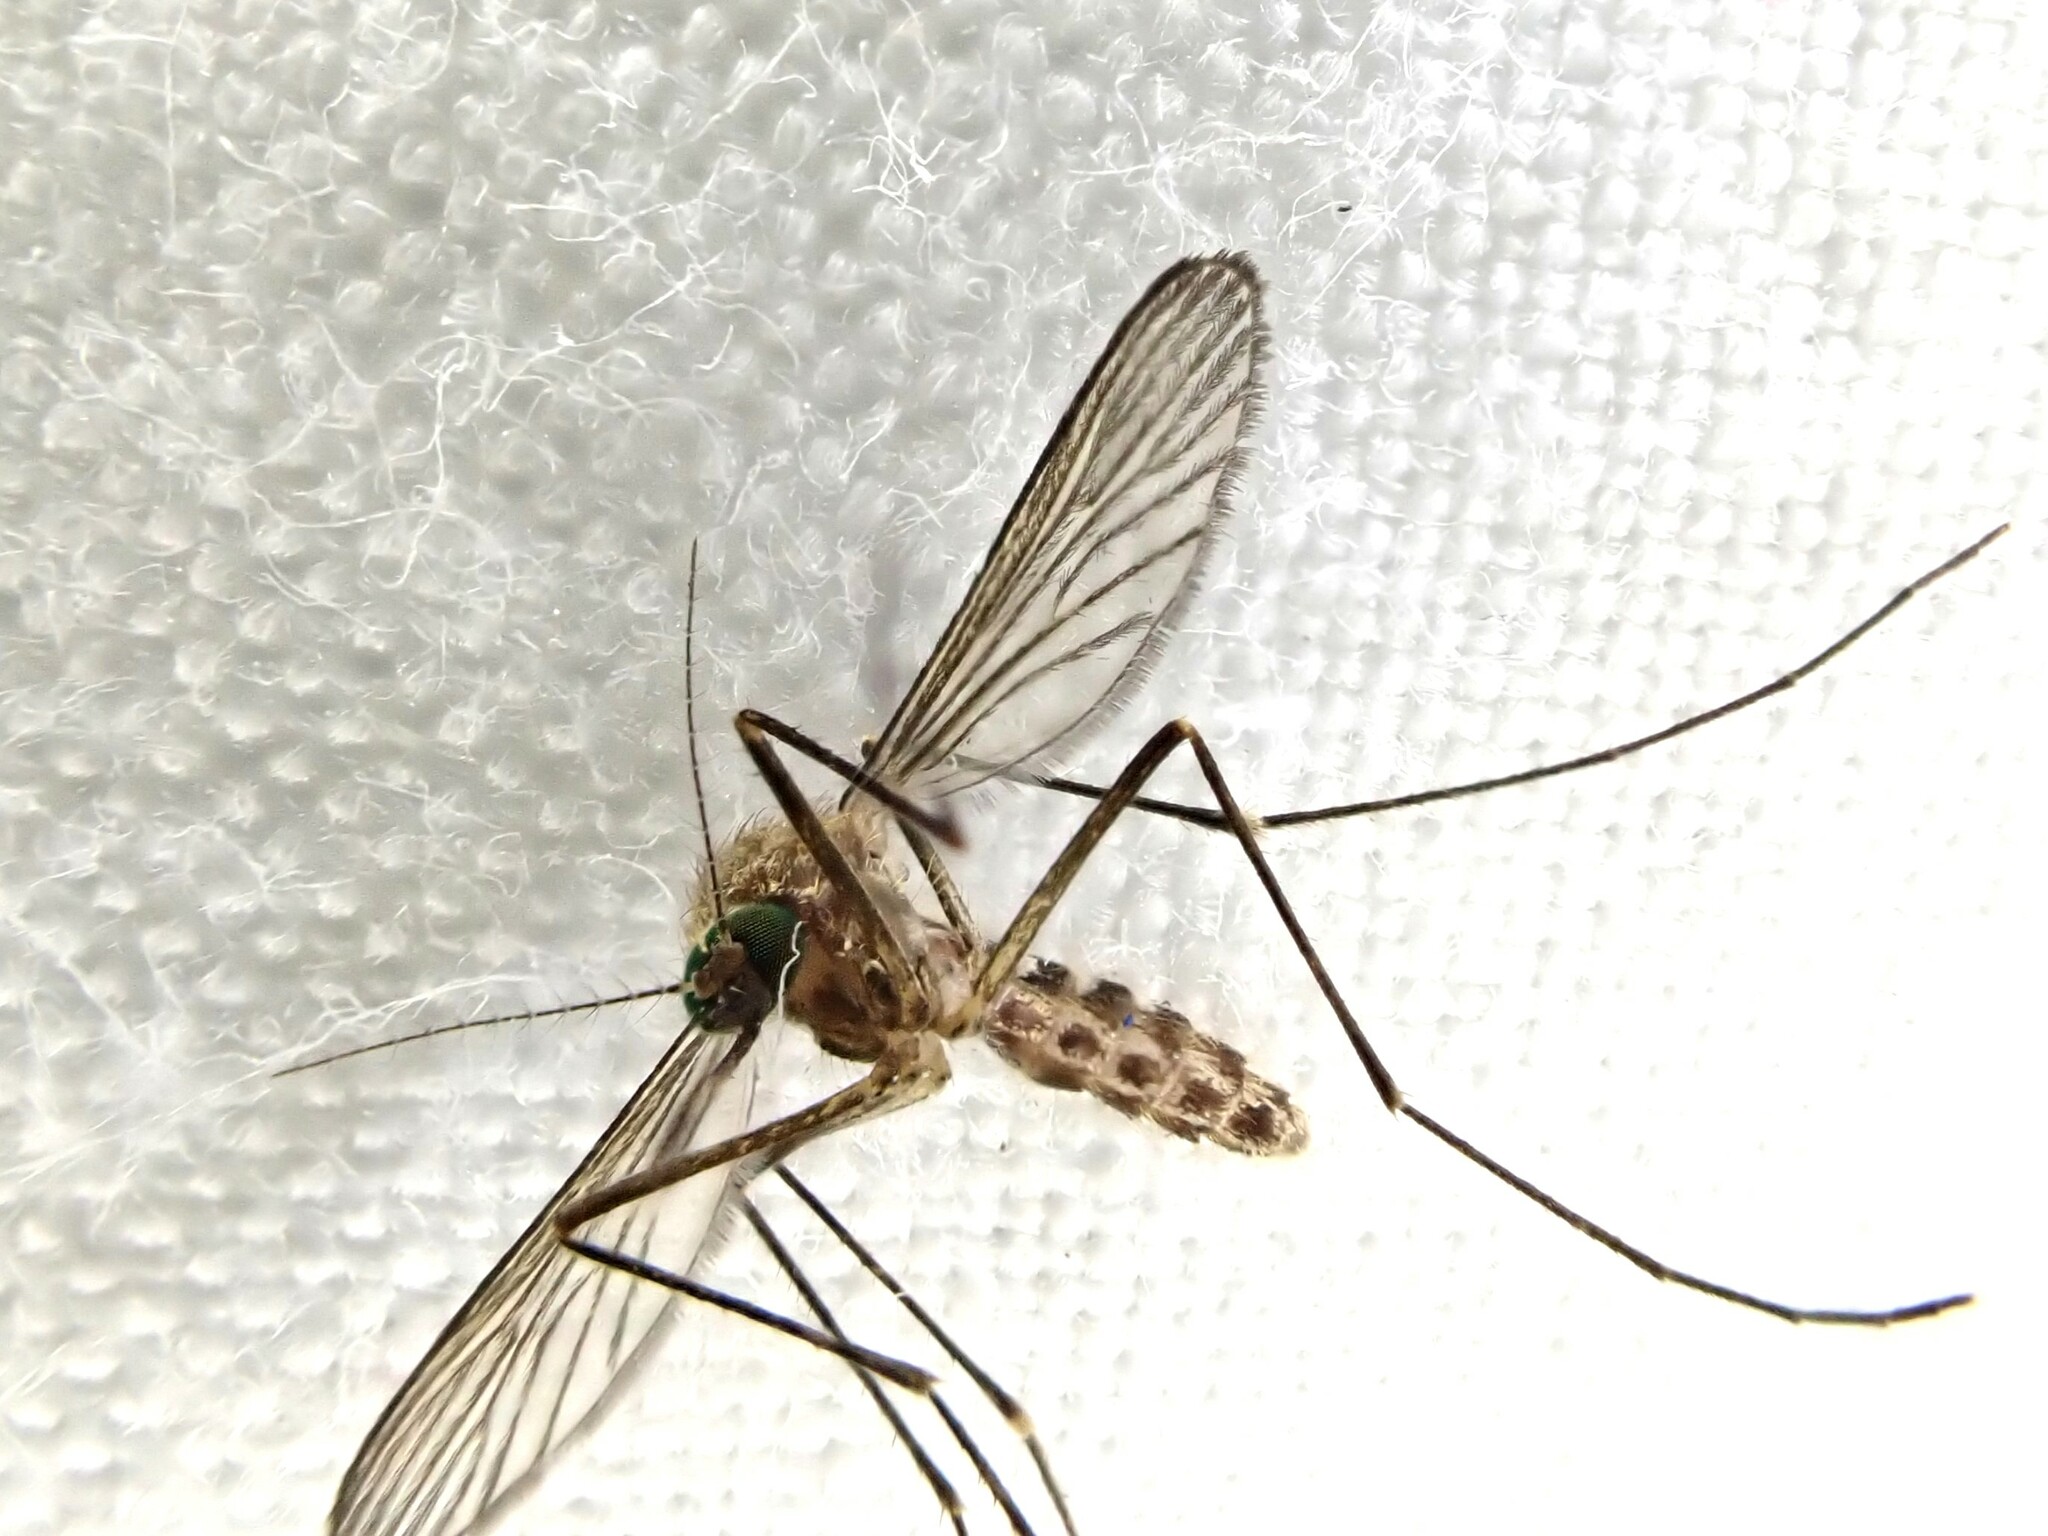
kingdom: Animalia
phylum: Arthropoda
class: Insecta
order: Diptera
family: Culicidae
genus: Culex
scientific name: Culex pervigilans
